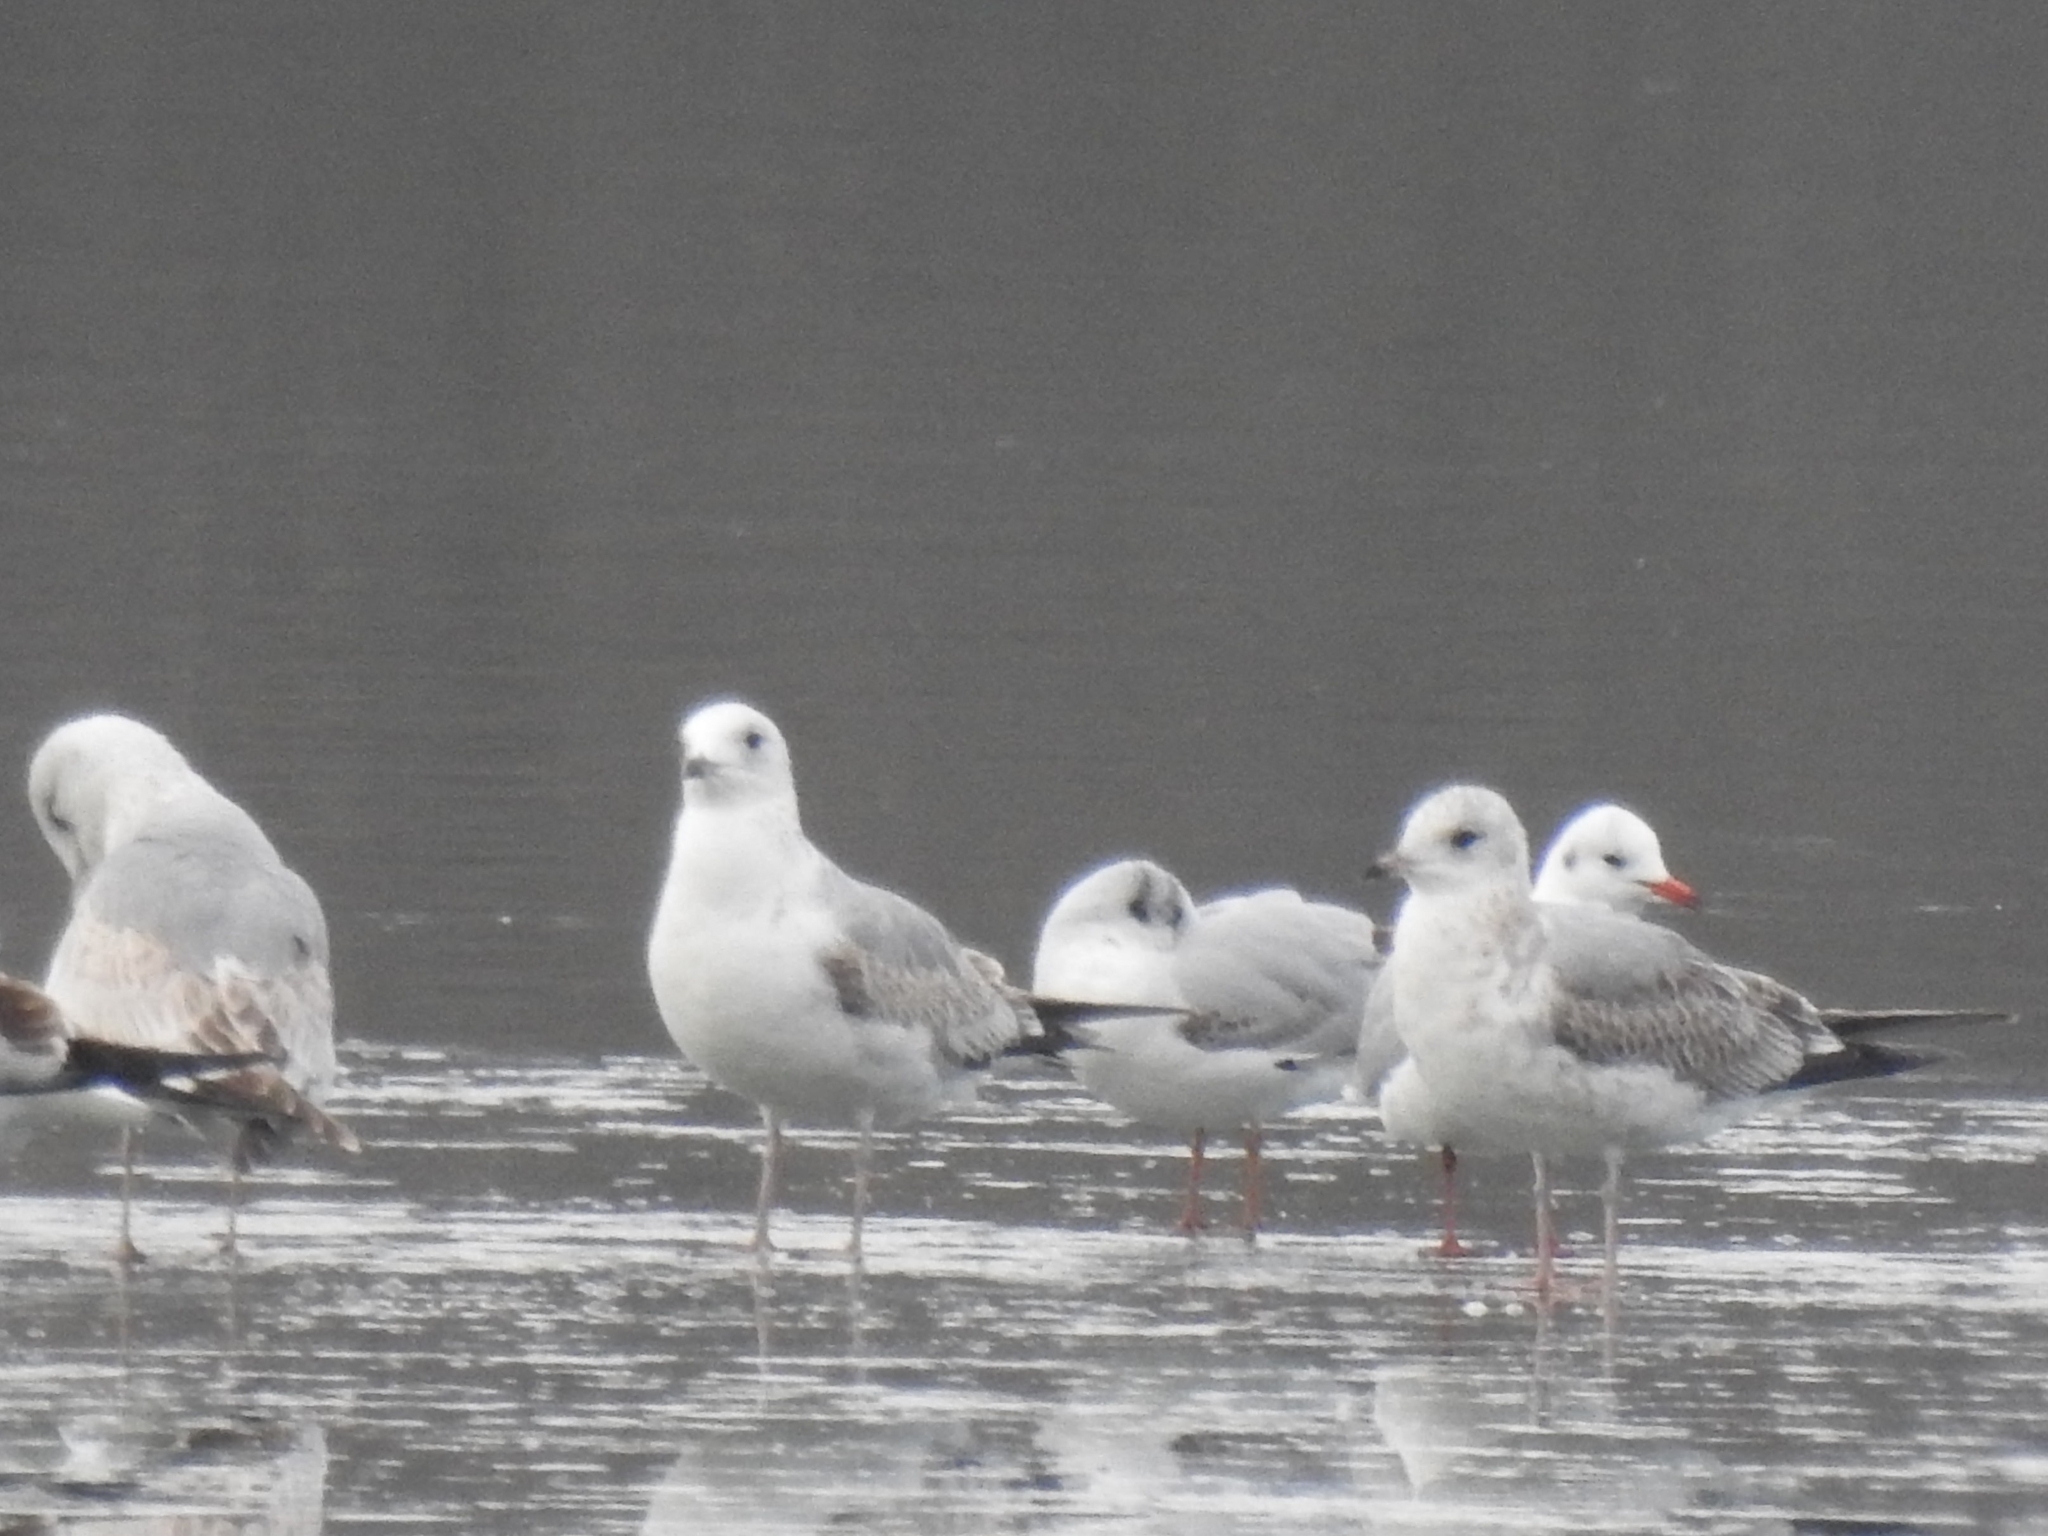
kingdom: Animalia
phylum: Chordata
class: Aves
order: Charadriiformes
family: Laridae
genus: Larus
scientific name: Larus canus
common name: Mew gull
